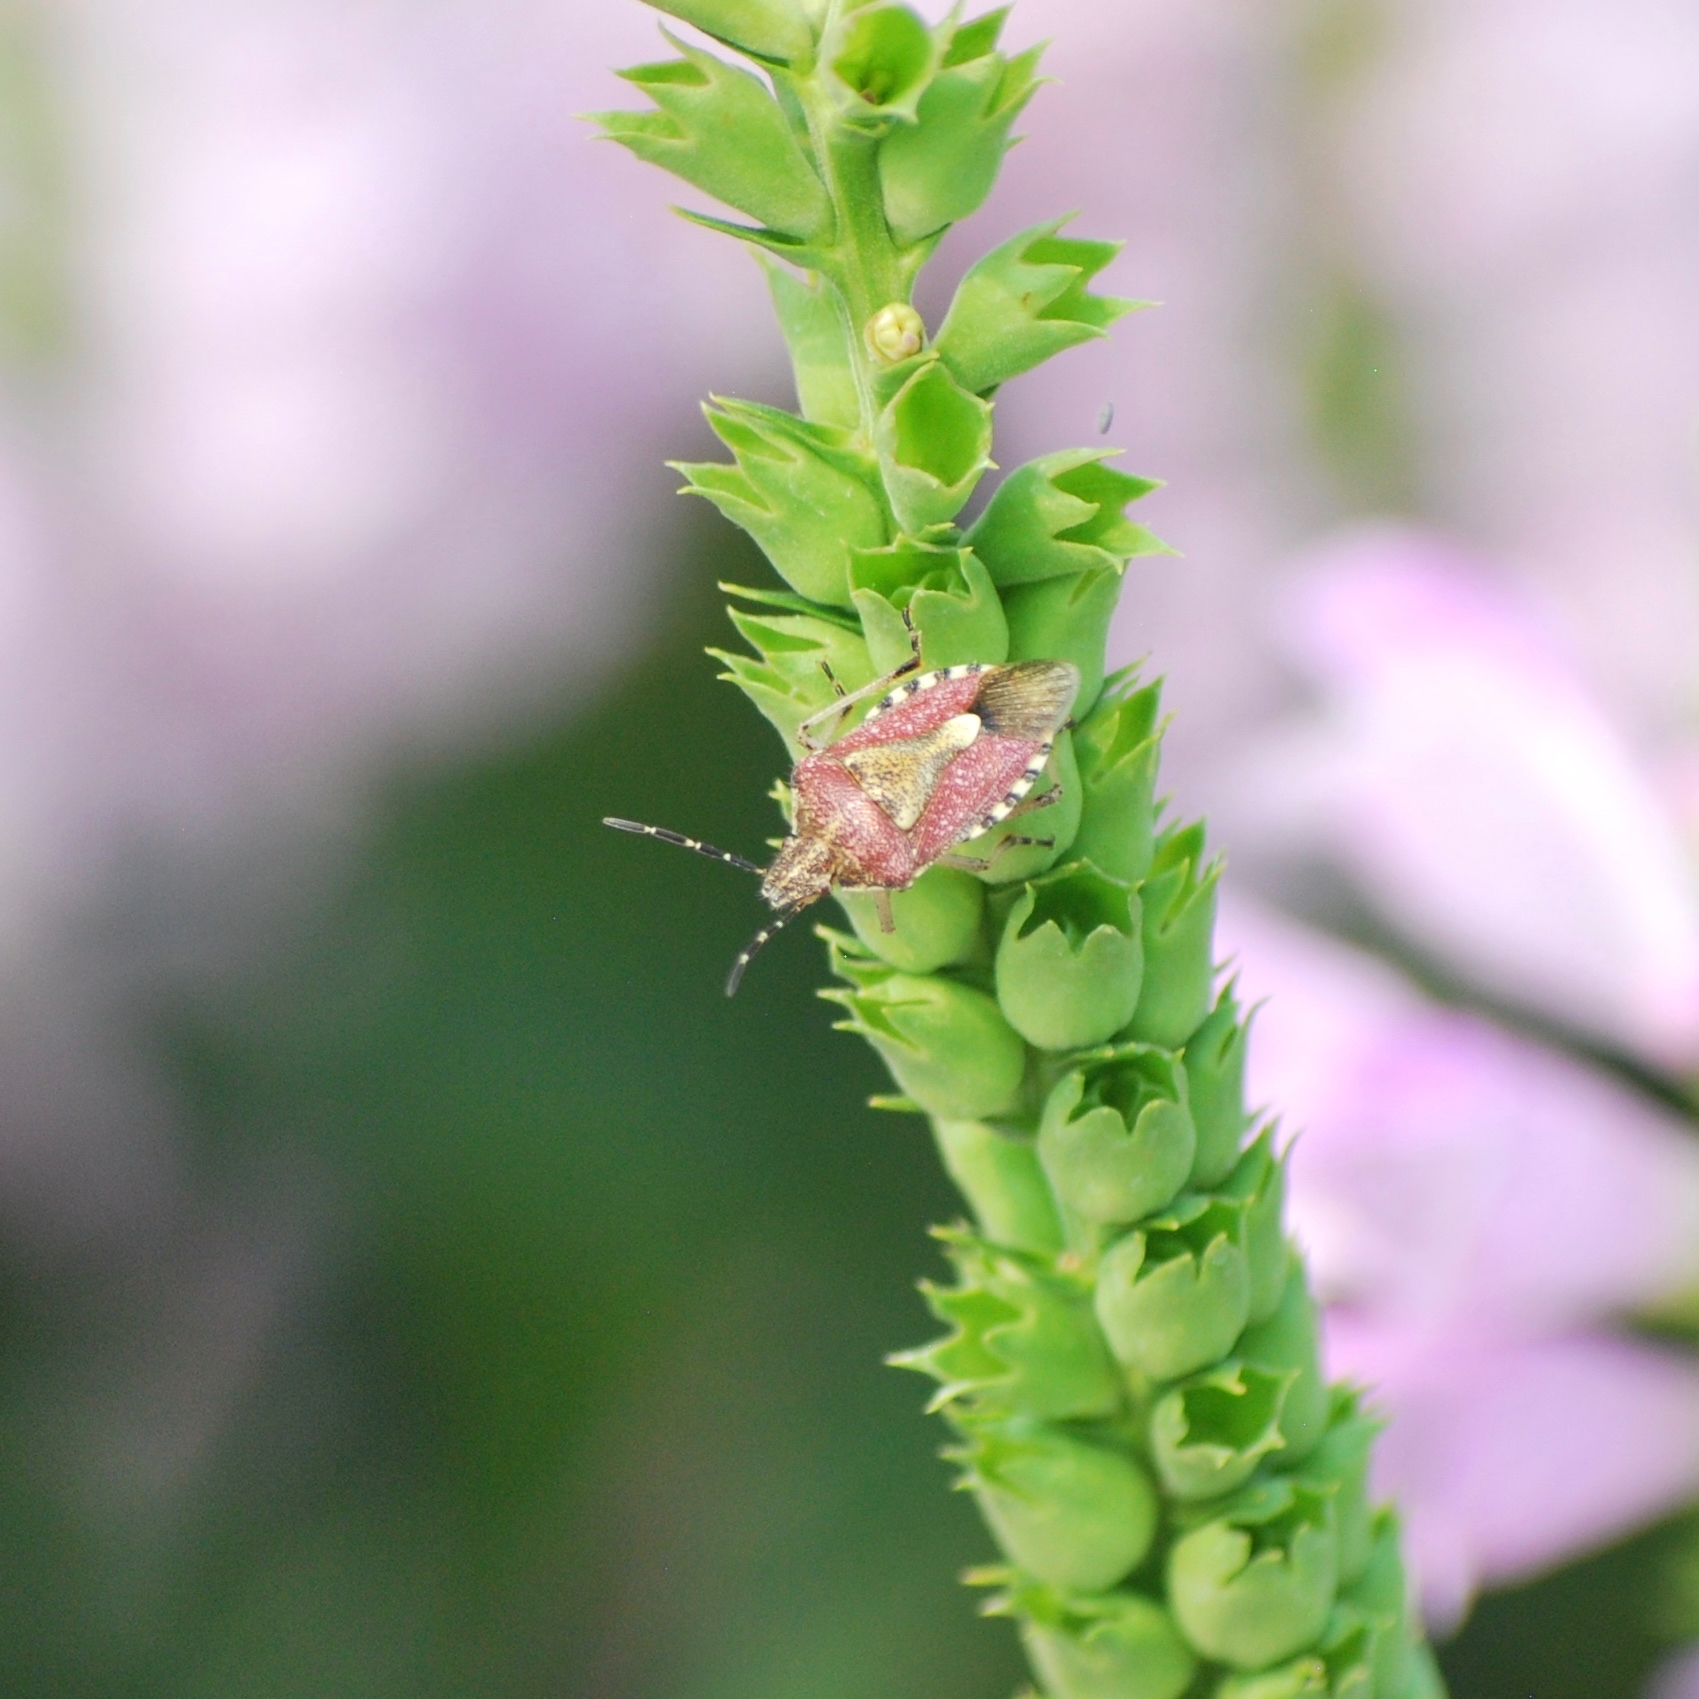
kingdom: Animalia
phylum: Arthropoda
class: Insecta
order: Hemiptera
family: Pentatomidae
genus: Dolycoris
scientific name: Dolycoris baccarum
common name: Sloe bug
